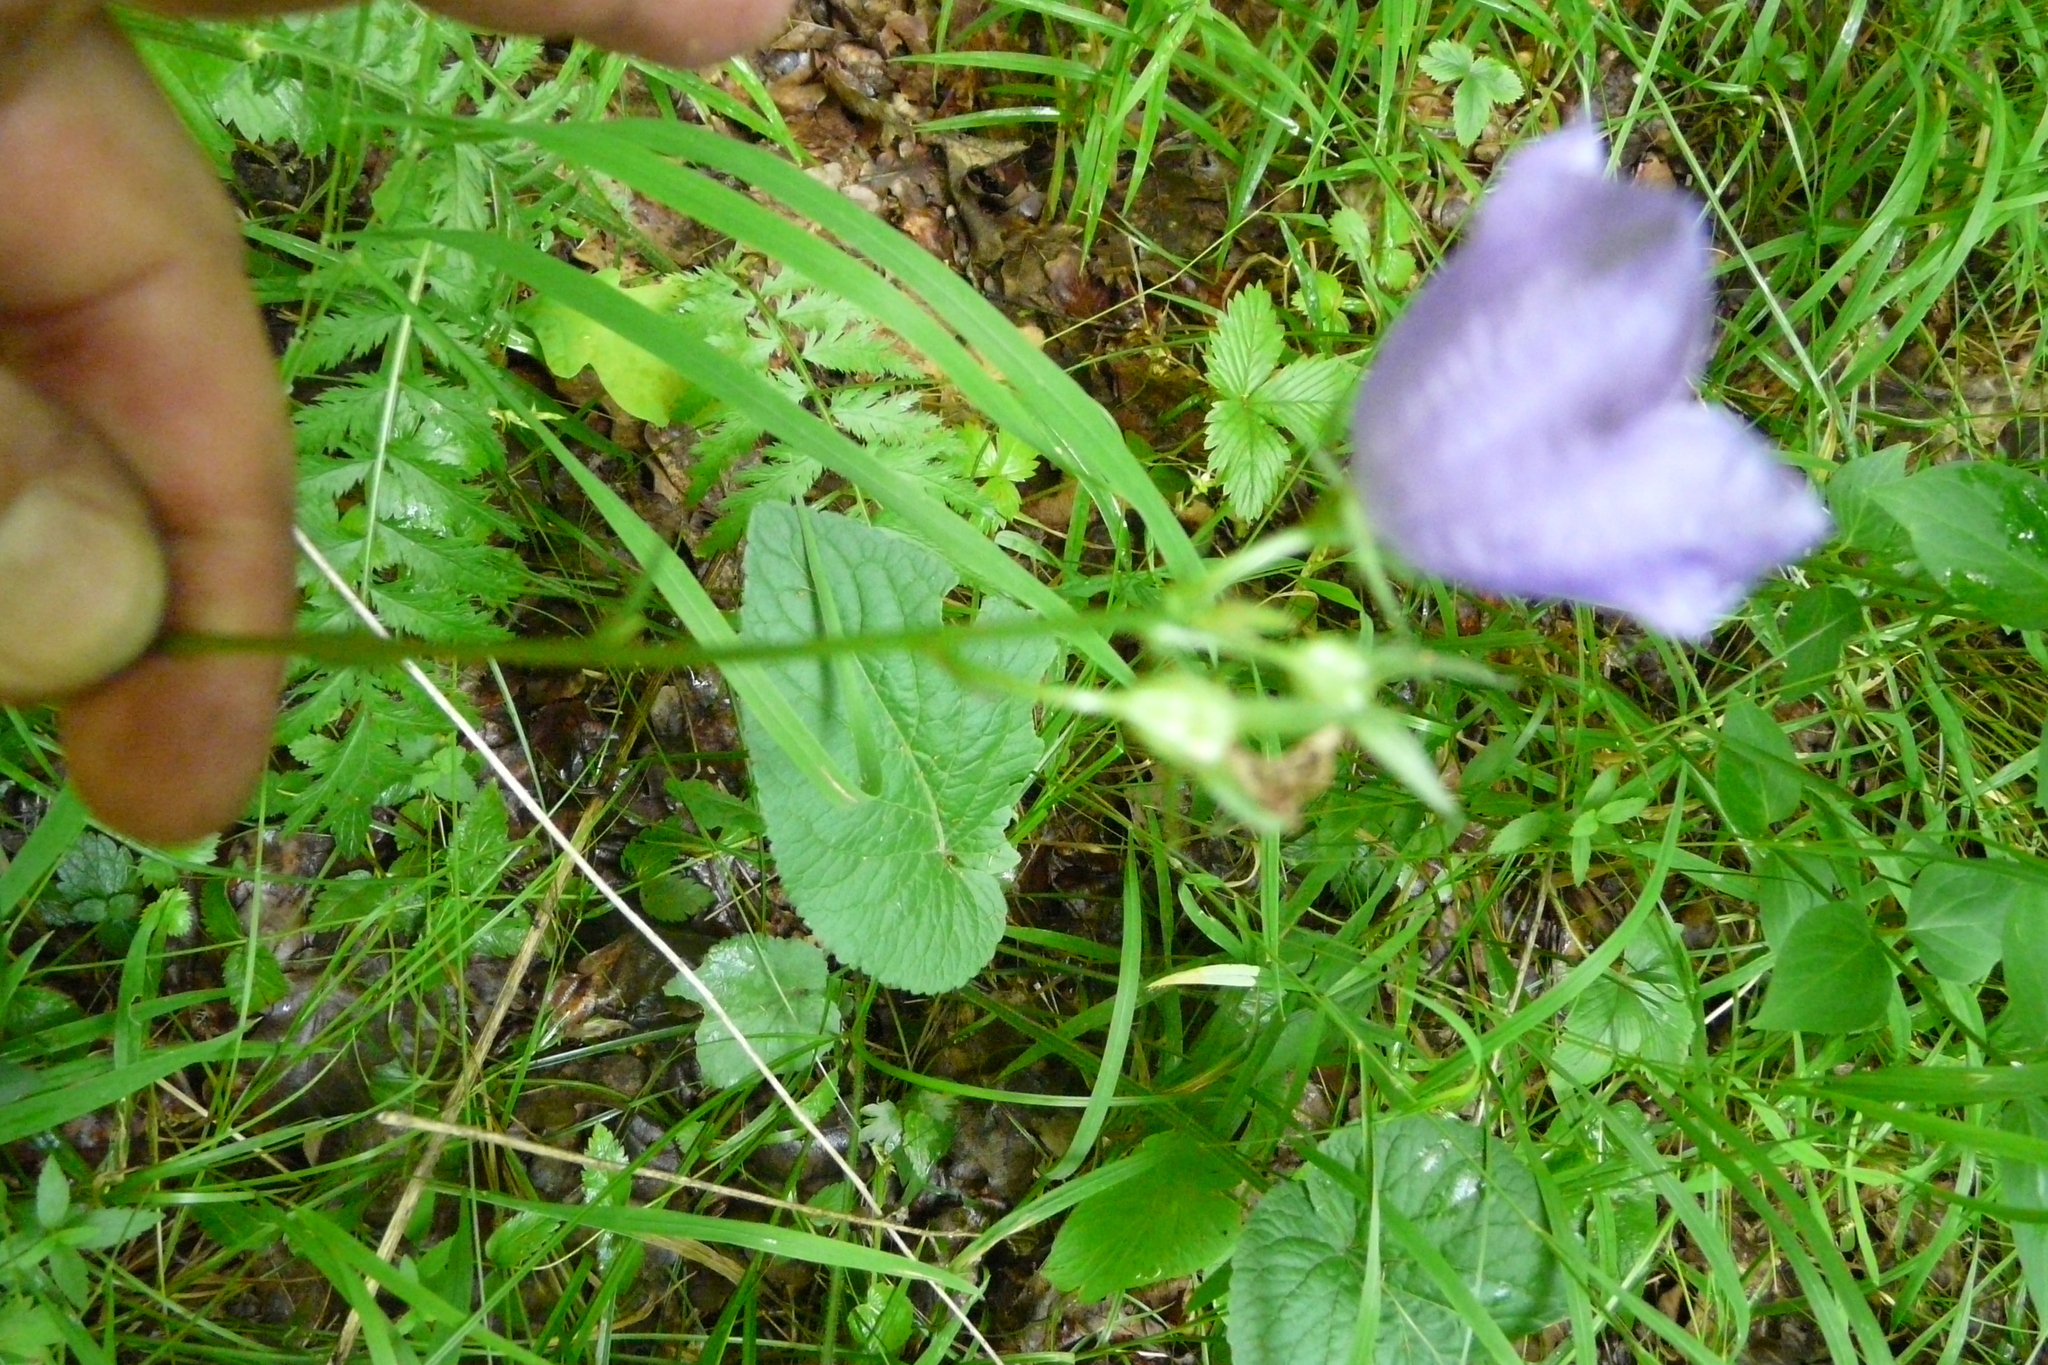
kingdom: Plantae
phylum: Tracheophyta
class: Magnoliopsida
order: Asterales
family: Campanulaceae
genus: Campanula
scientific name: Campanula persicifolia
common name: Peach-leaved bellflower
